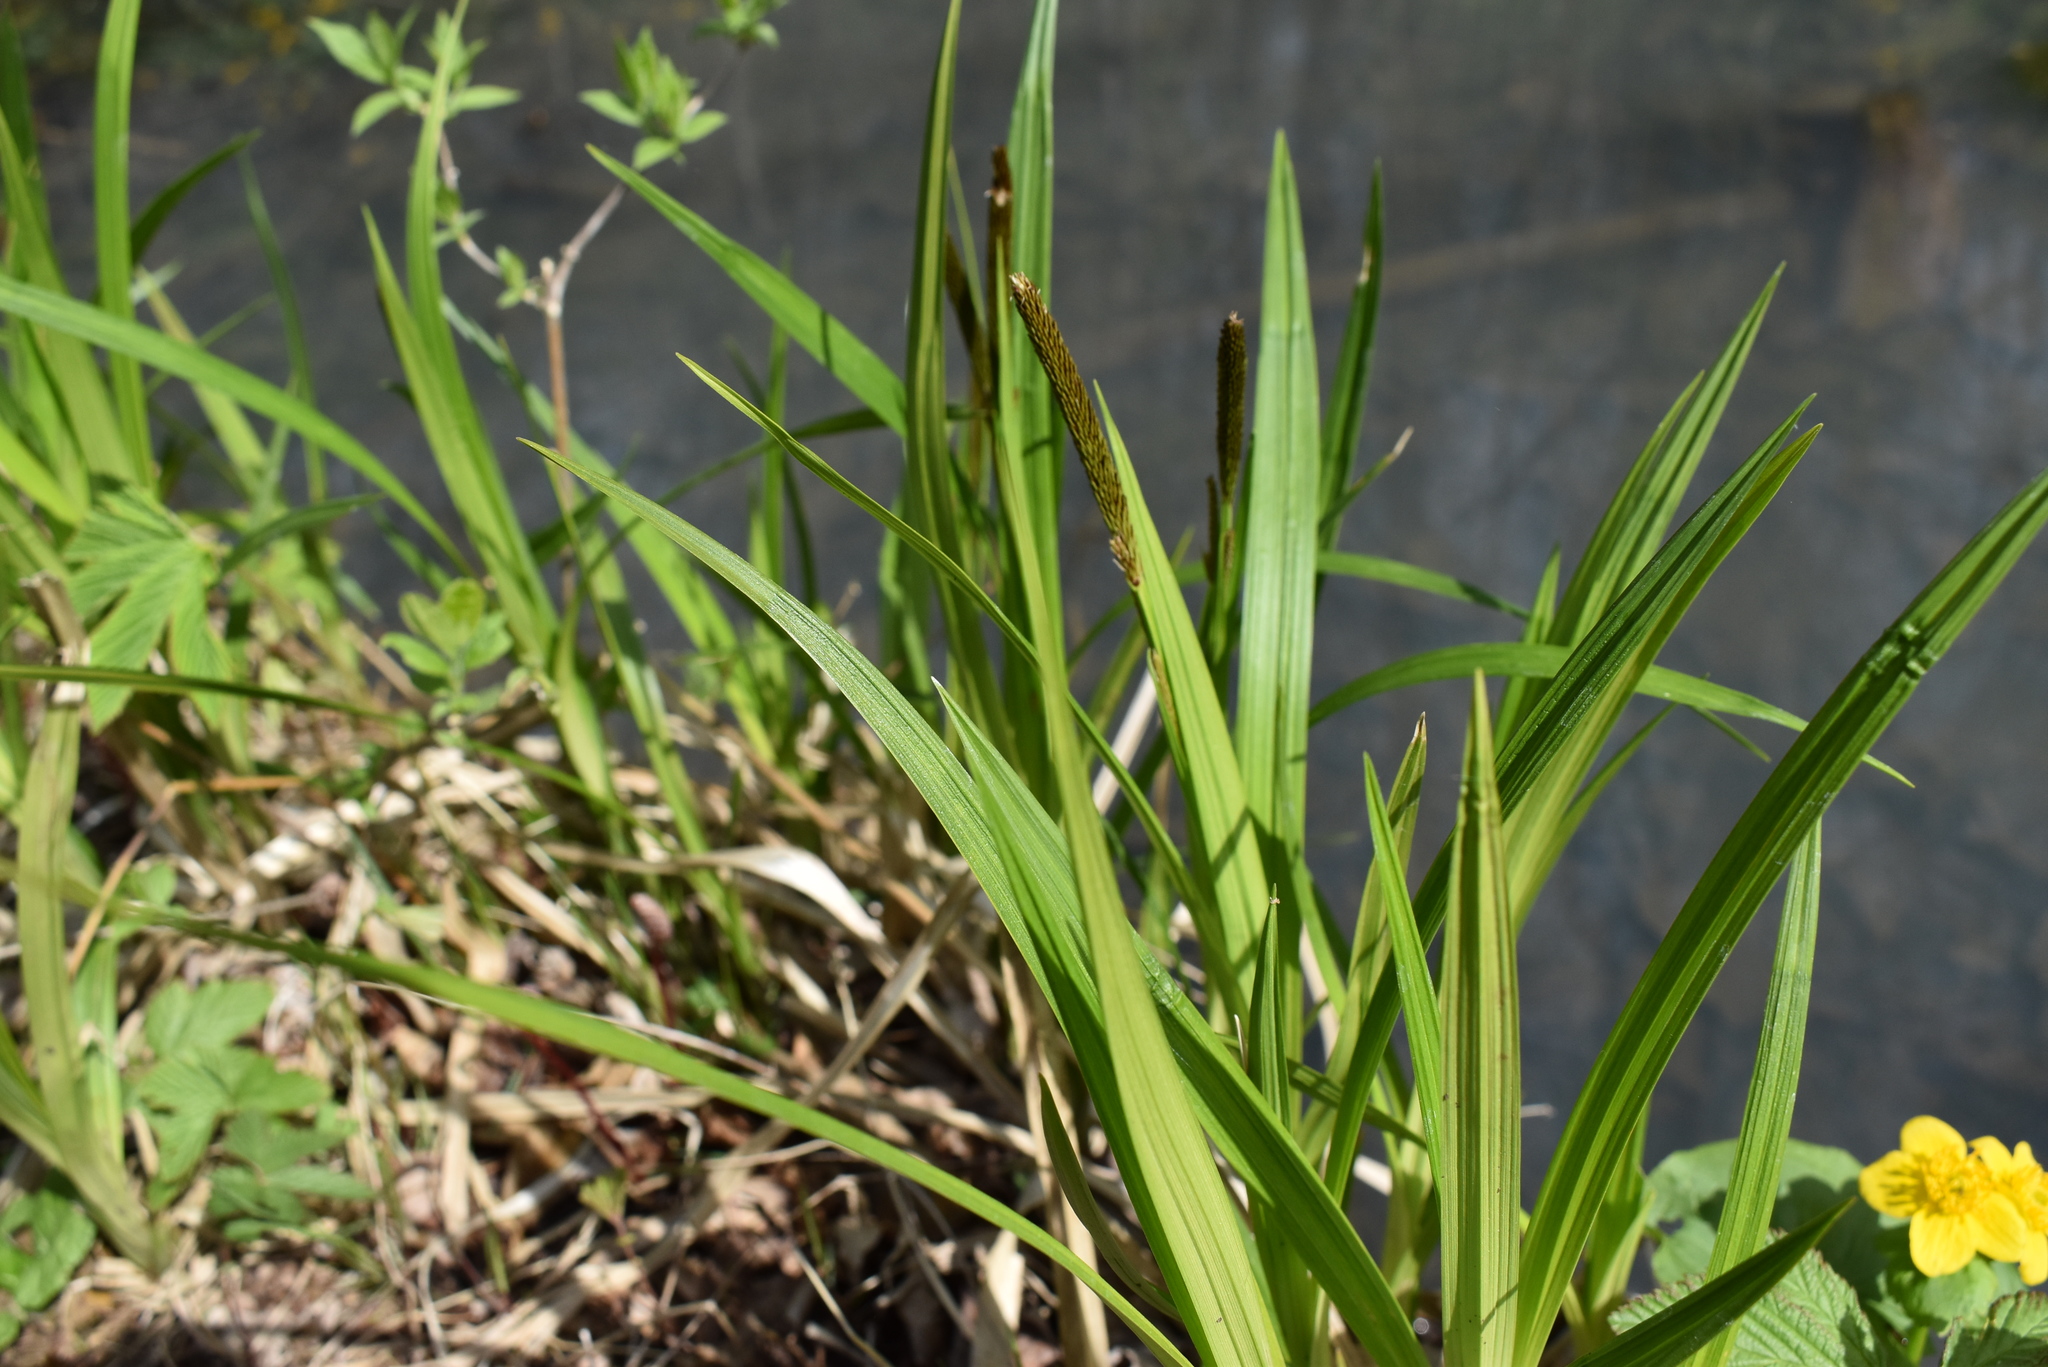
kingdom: Plantae
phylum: Tracheophyta
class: Liliopsida
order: Poales
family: Cyperaceae
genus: Carex
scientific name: Carex dispalata
